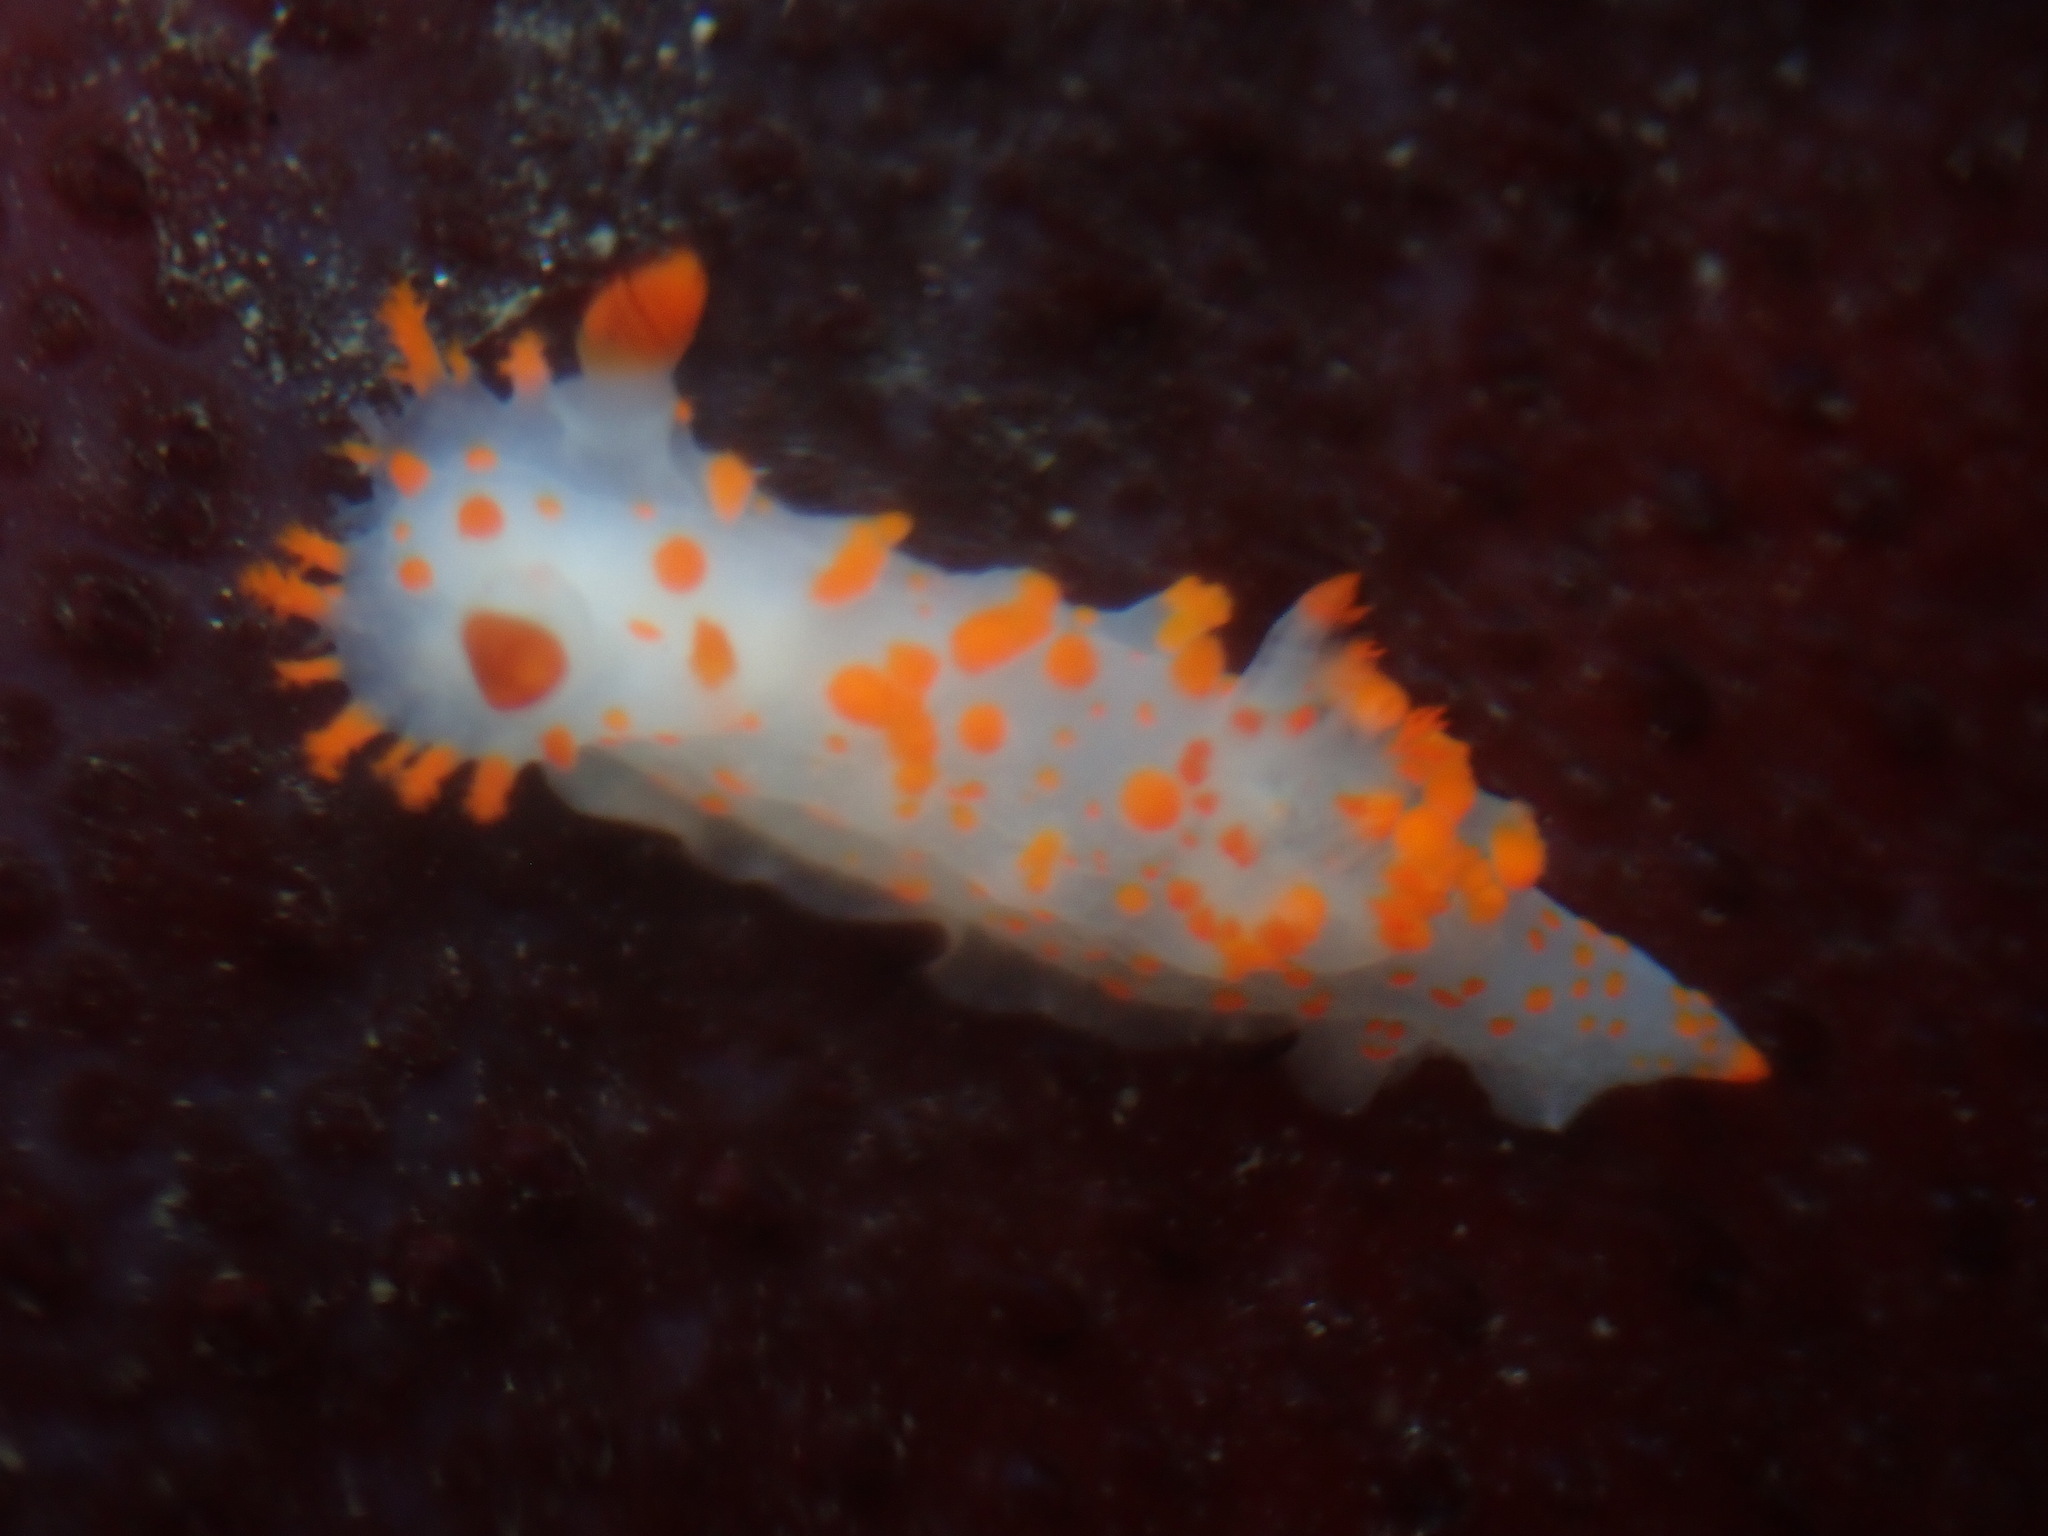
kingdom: Animalia
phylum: Mollusca
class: Gastropoda
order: Nudibranchia
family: Polyceridae
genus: Triopha
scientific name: Triopha catalinae
